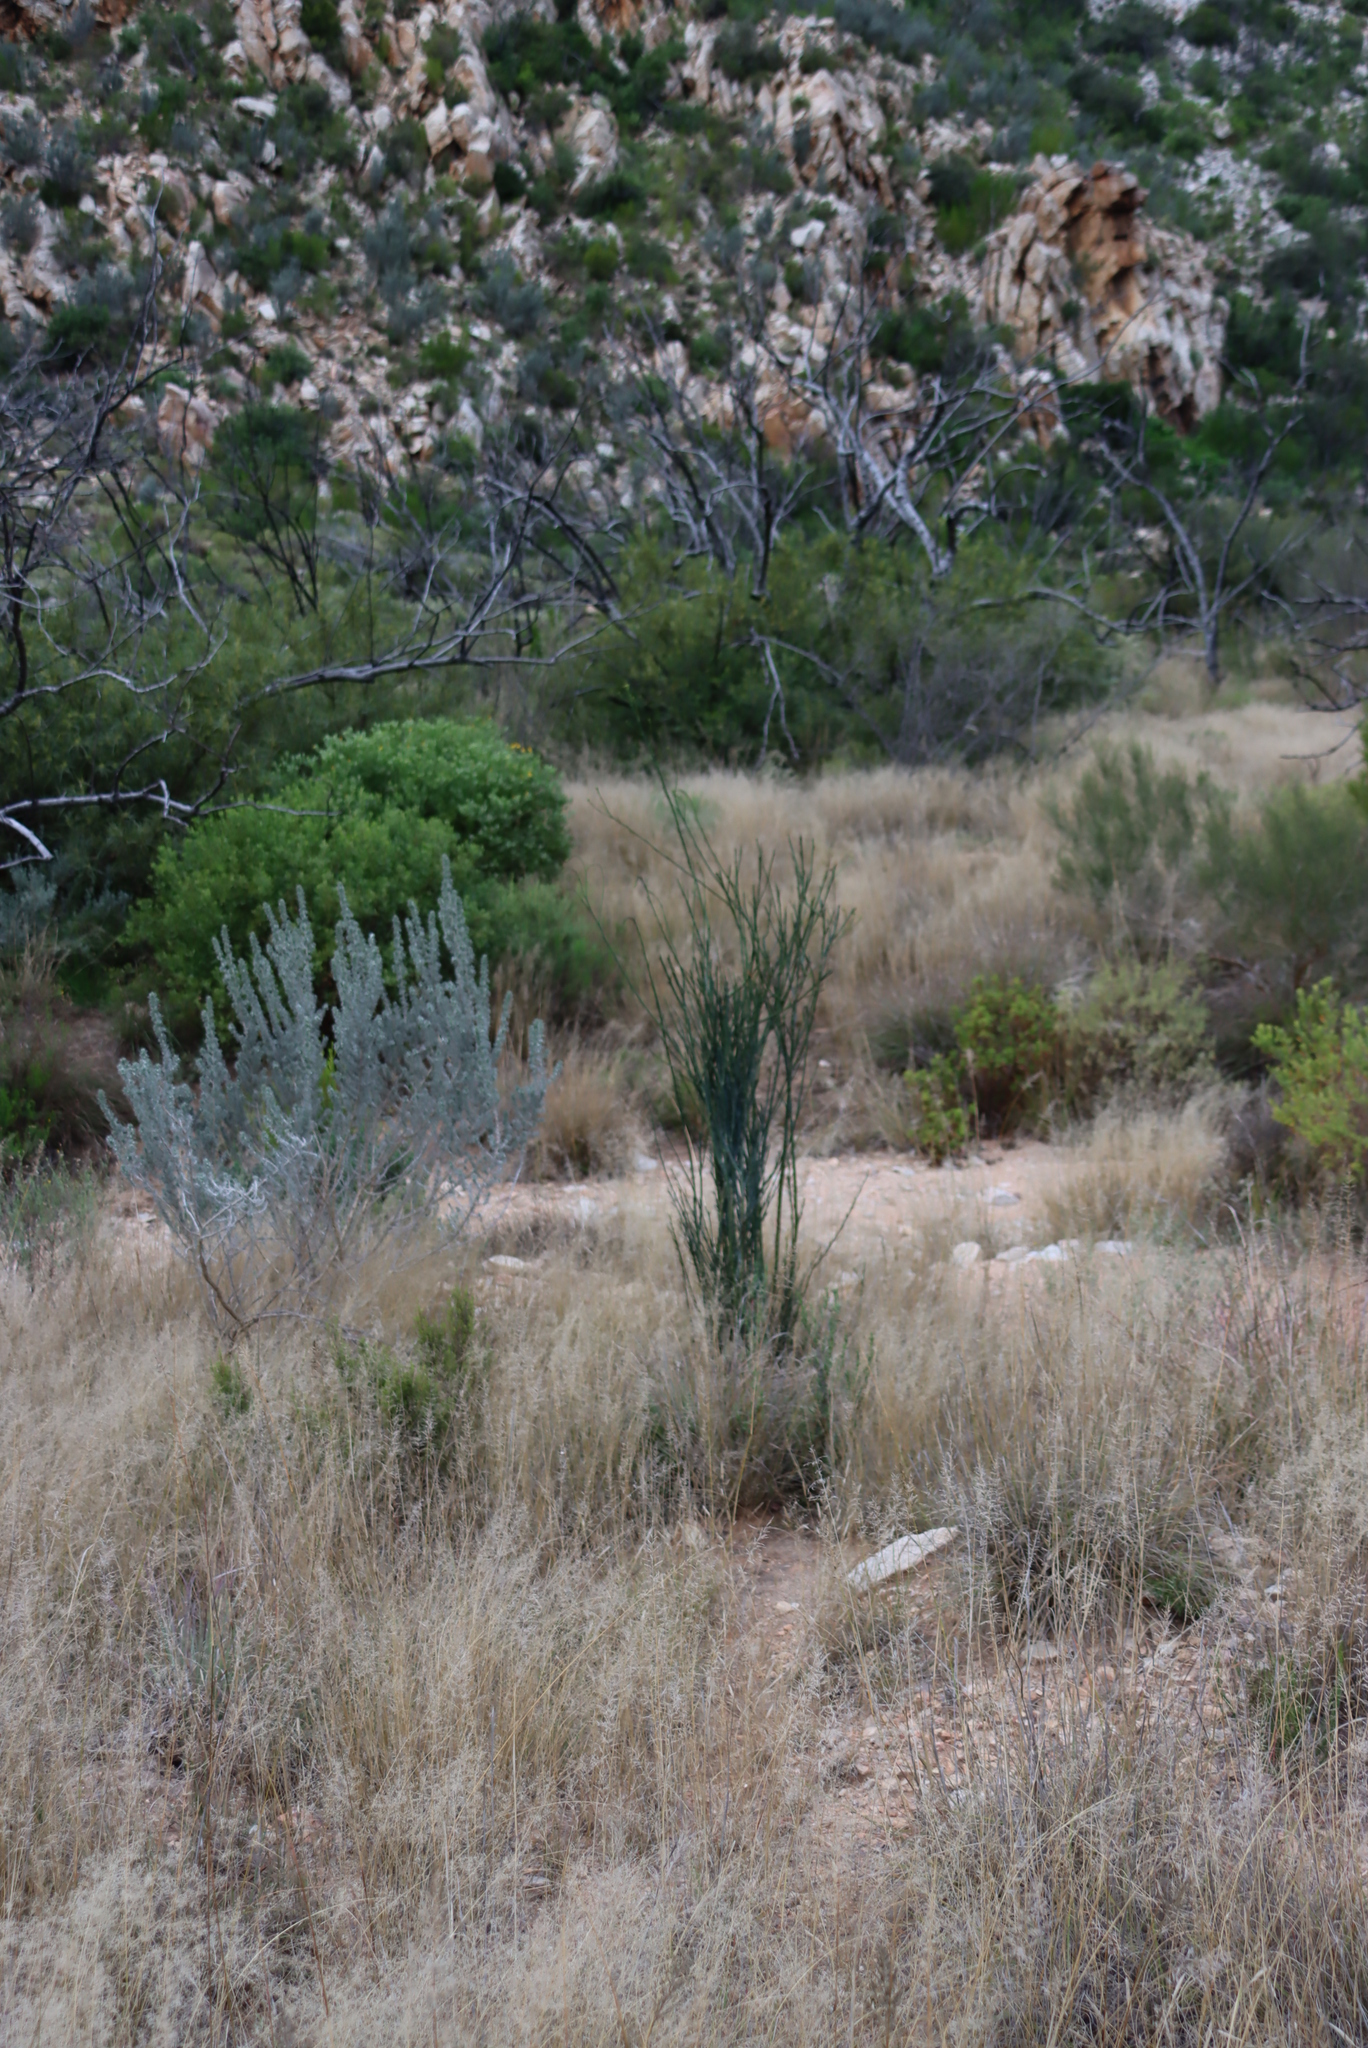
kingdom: Plantae
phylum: Tracheophyta
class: Magnoliopsida
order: Asterales
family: Asteraceae
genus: Dicerothamnus
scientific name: Dicerothamnus rhinocerotis
